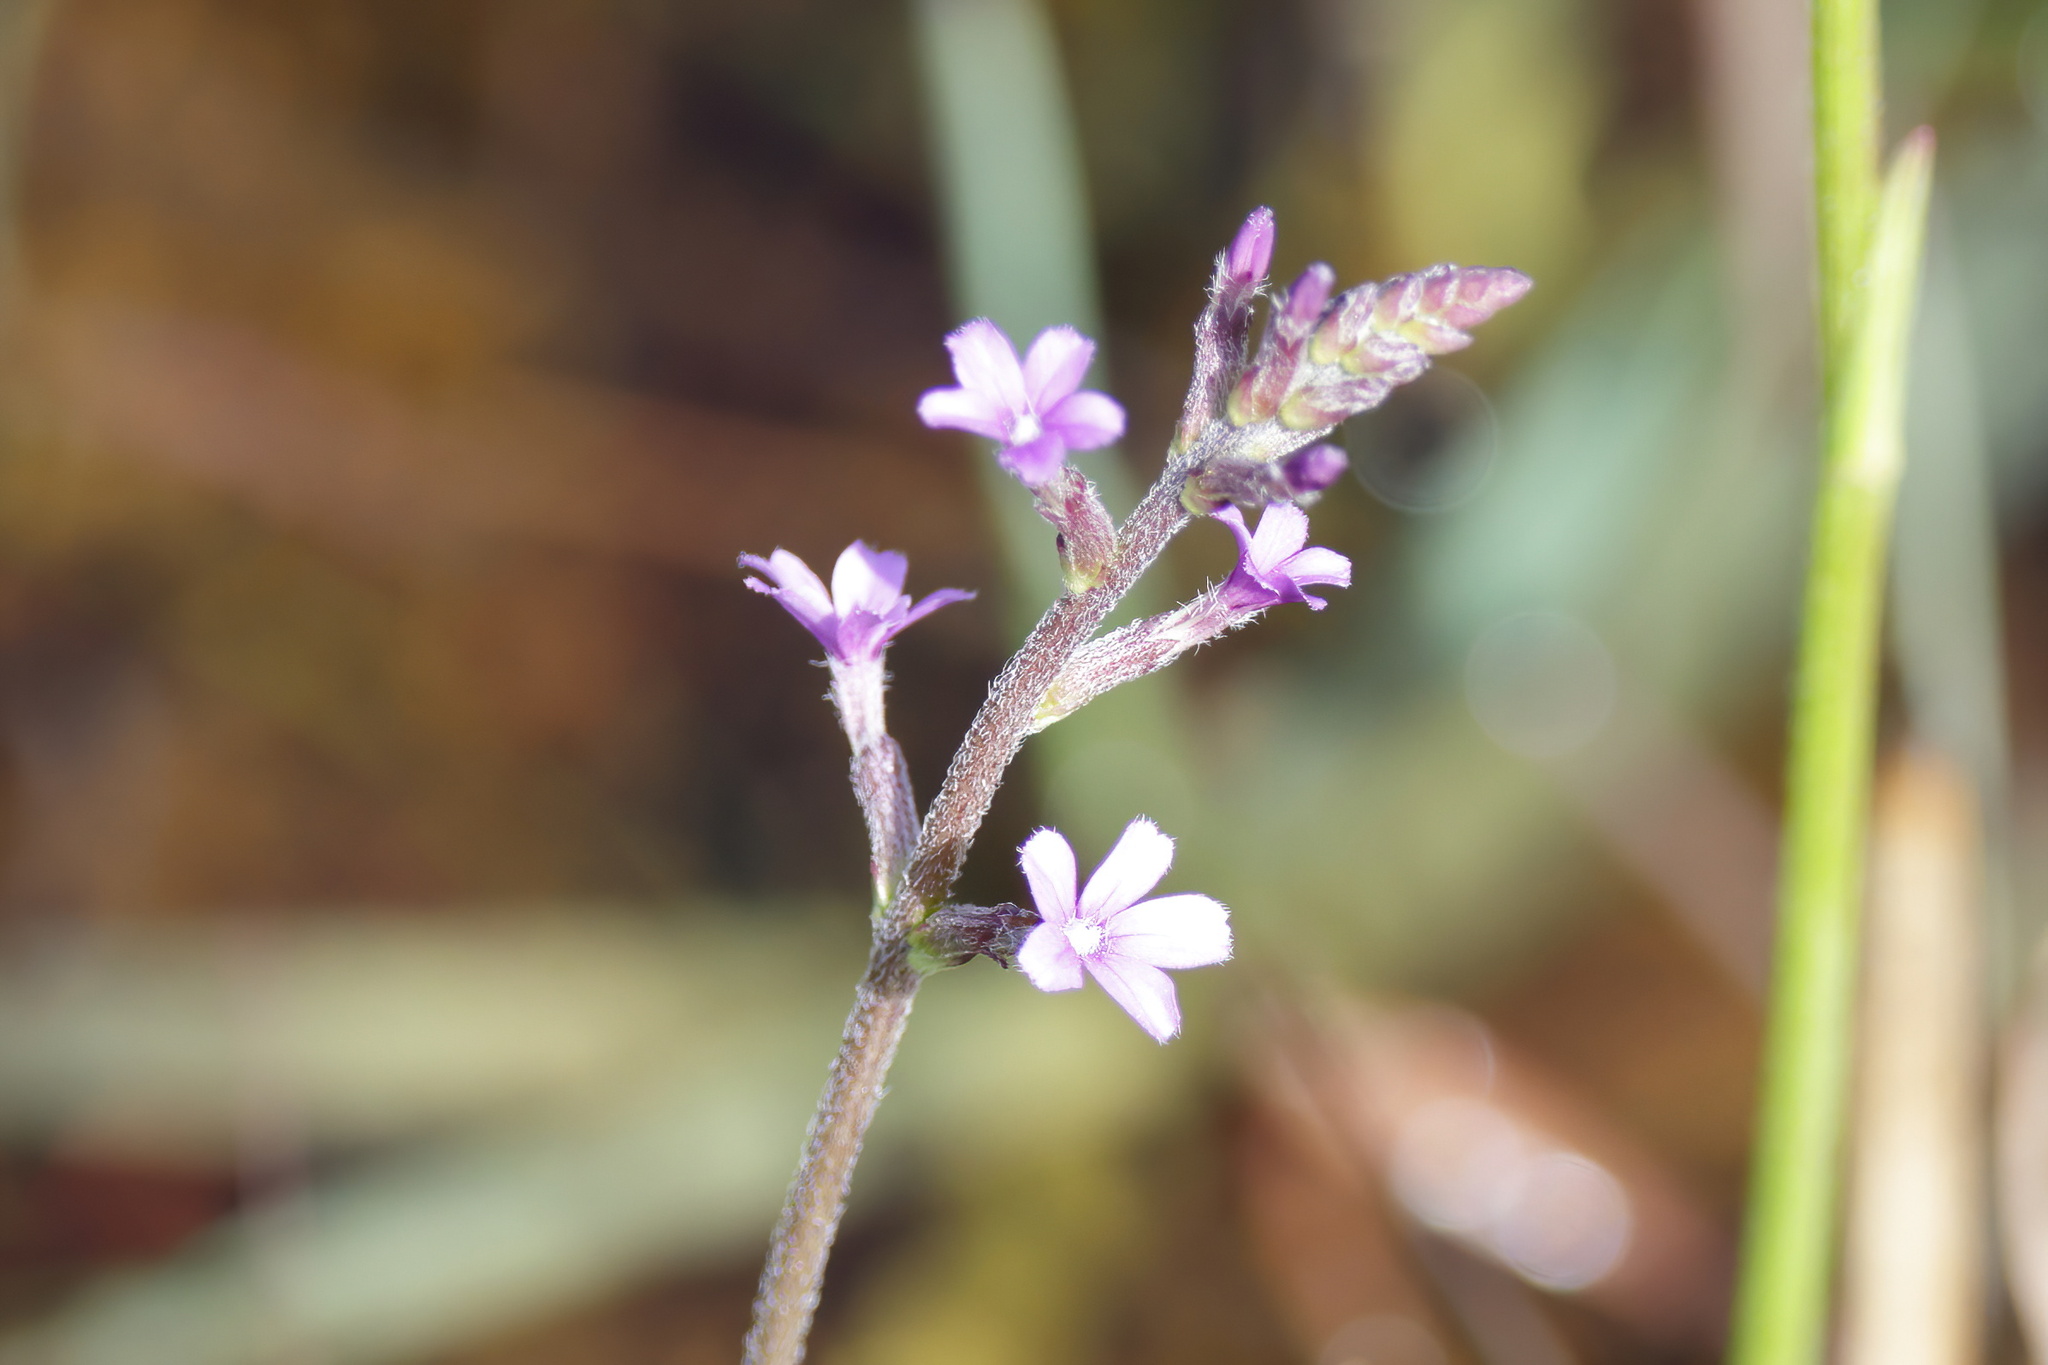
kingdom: Plantae
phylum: Tracheophyta
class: Magnoliopsida
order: Lamiales
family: Orobanchaceae
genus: Buchnera
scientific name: Buchnera floridana
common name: Florida bluehearts
